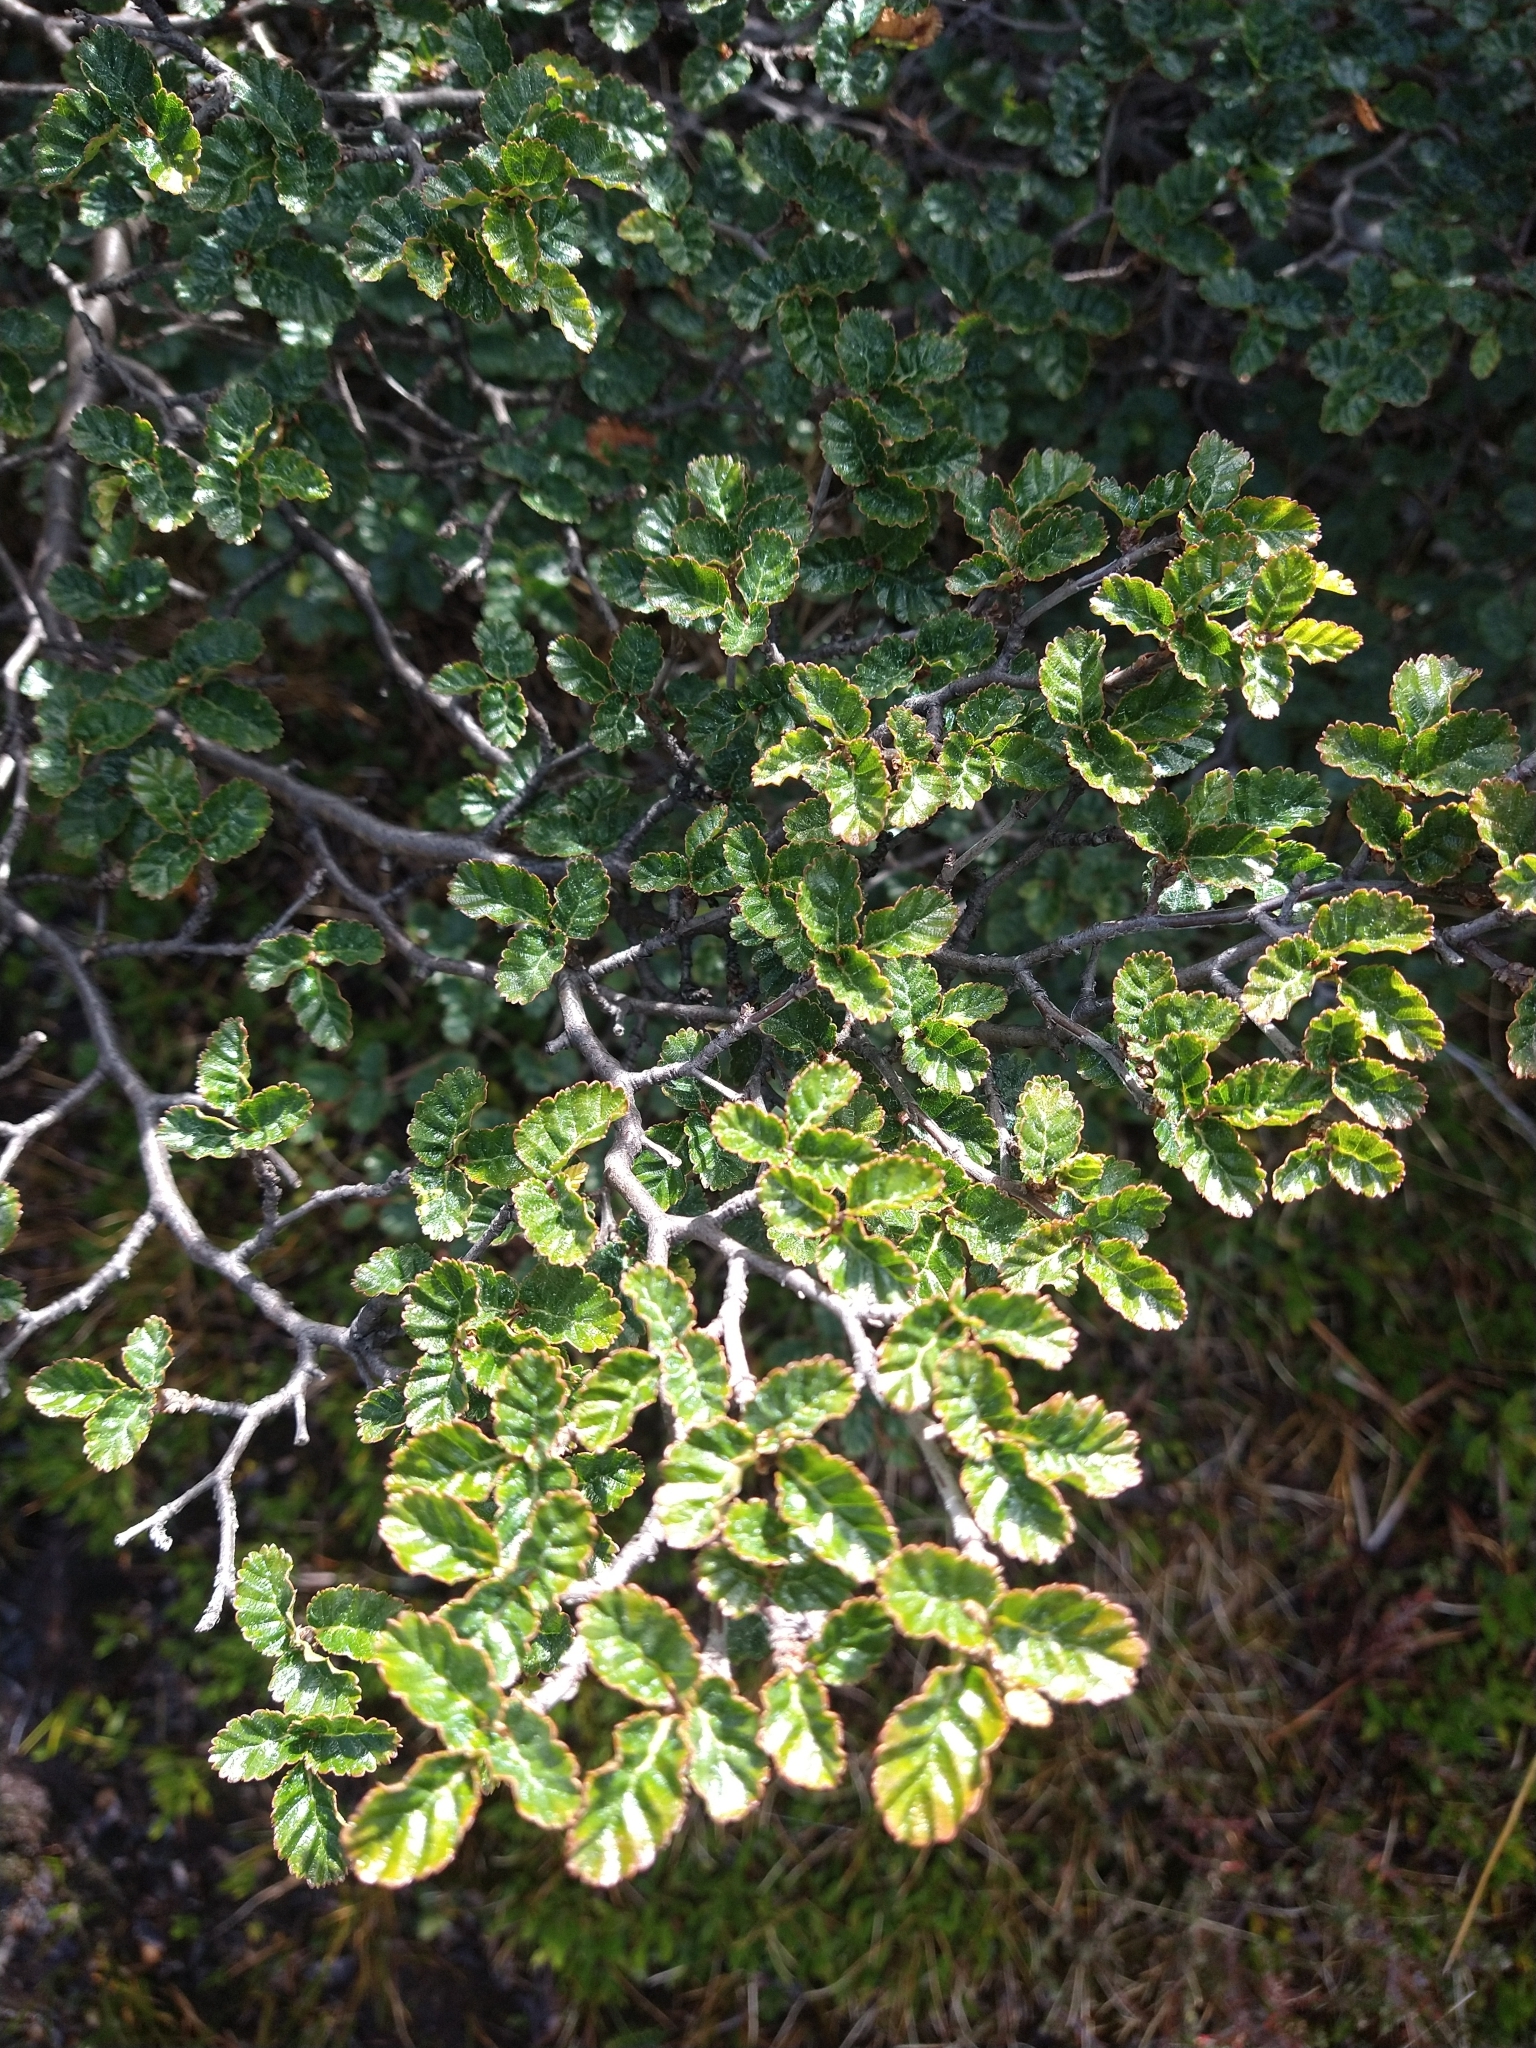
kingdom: Plantae
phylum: Tracheophyta
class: Magnoliopsida
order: Fagales
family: Nothofagaceae
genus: Nothofagus
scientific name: Nothofagus antarctica
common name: Antarctic beech
